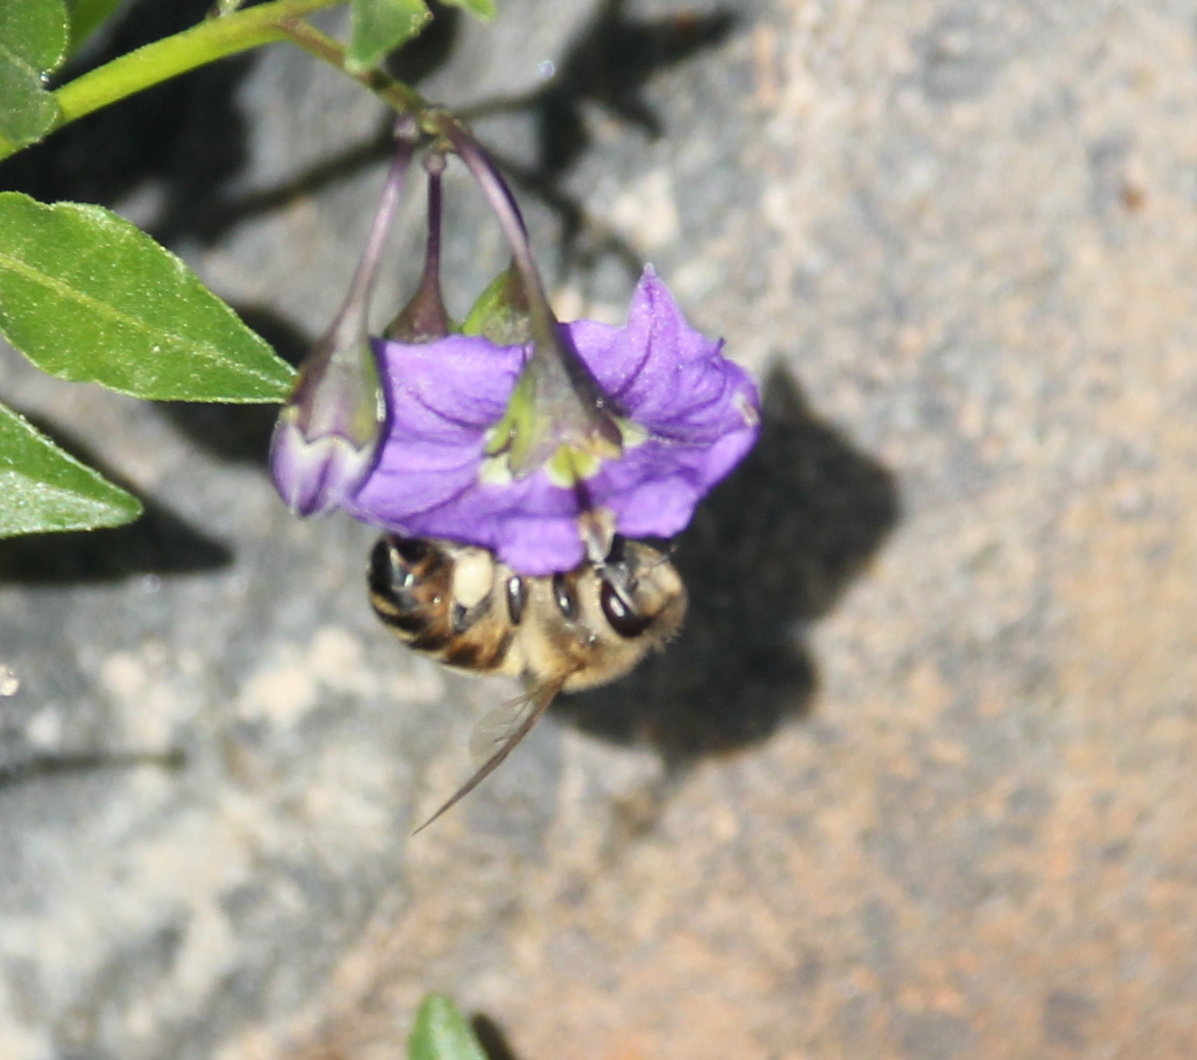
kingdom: Animalia
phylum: Arthropoda
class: Insecta
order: Hymenoptera
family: Apidae
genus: Apis
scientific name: Apis mellifera
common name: Honey bee
